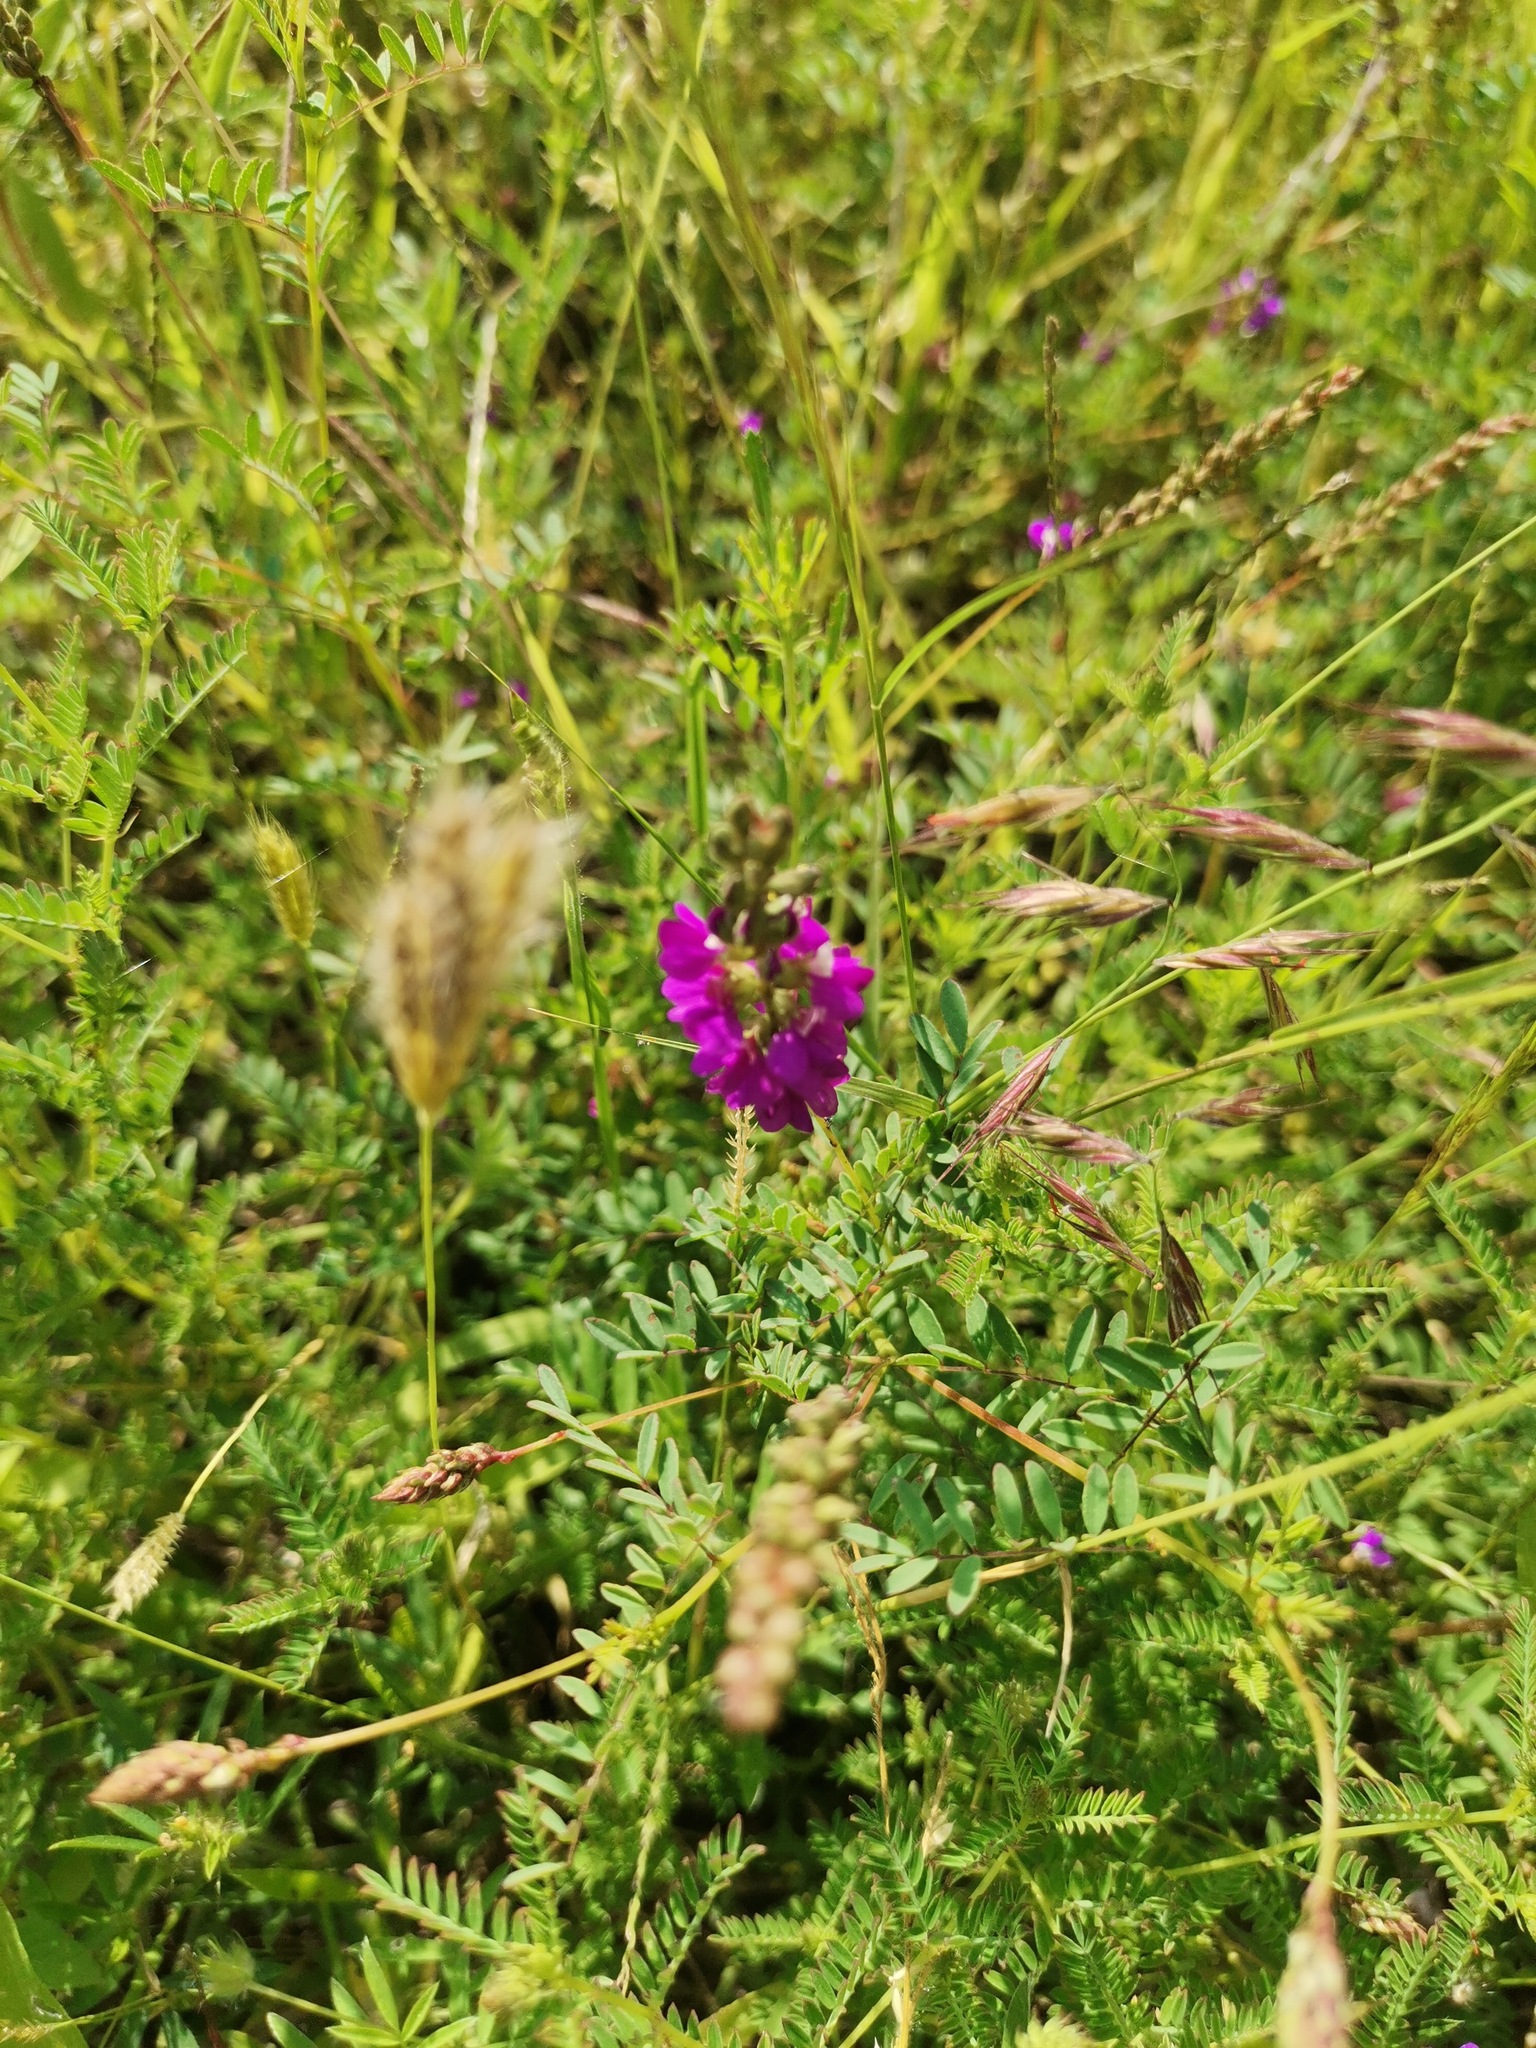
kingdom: Plantae
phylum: Tracheophyta
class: Magnoliopsida
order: Fabales
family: Fabaceae
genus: Dalea
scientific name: Dalea bicolor
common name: Silver prairie-clover
